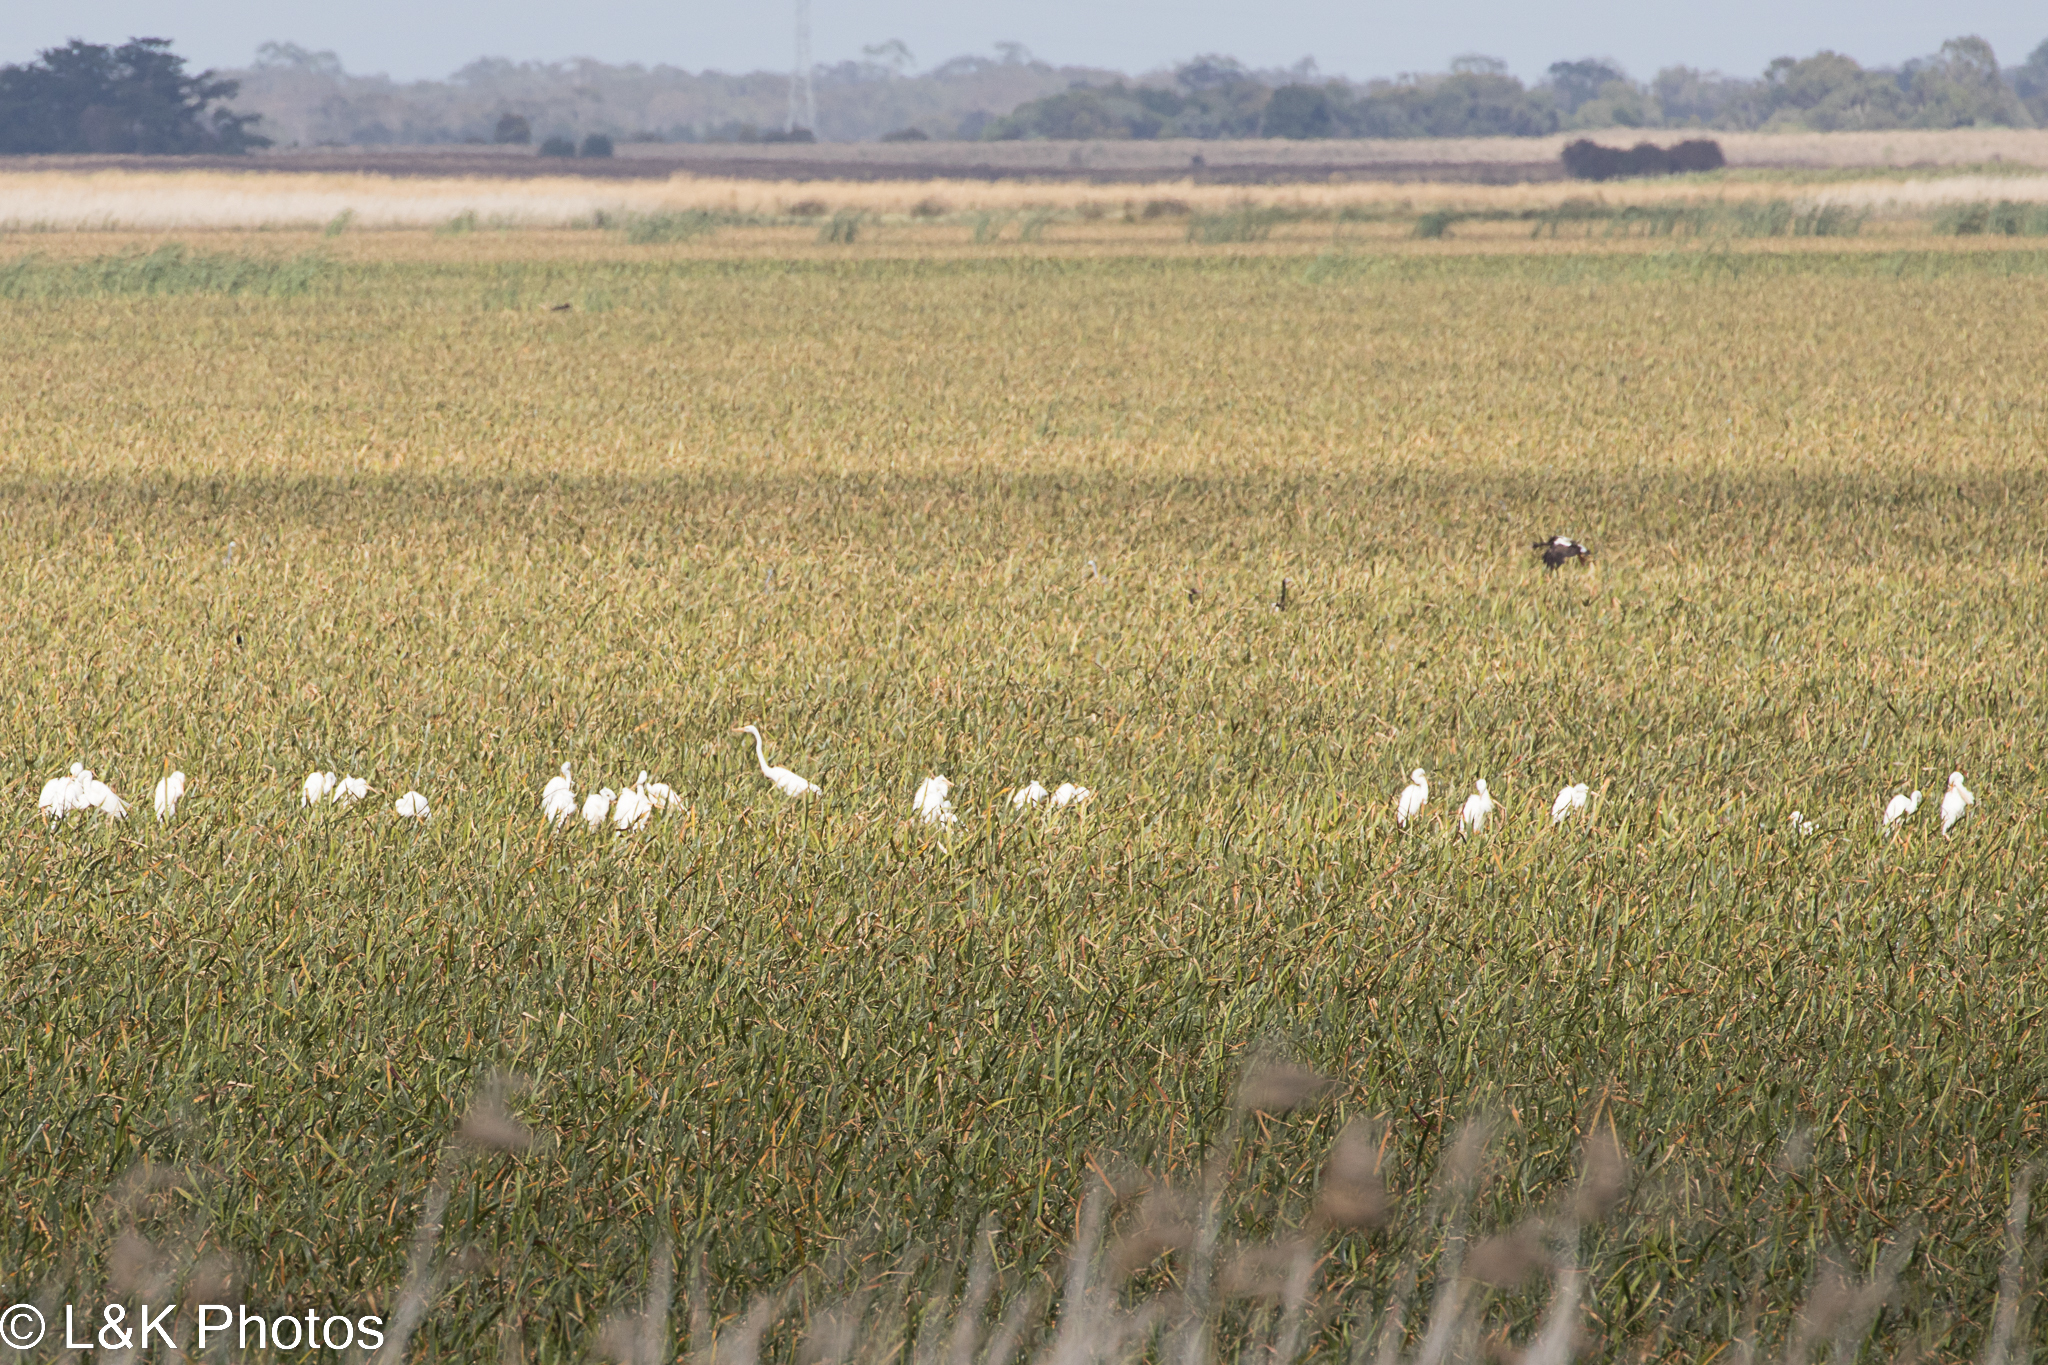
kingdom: Animalia
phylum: Chordata
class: Aves
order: Pelecaniformes
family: Ardeidae
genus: Ardea
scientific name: Ardea alba
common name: Great egret
